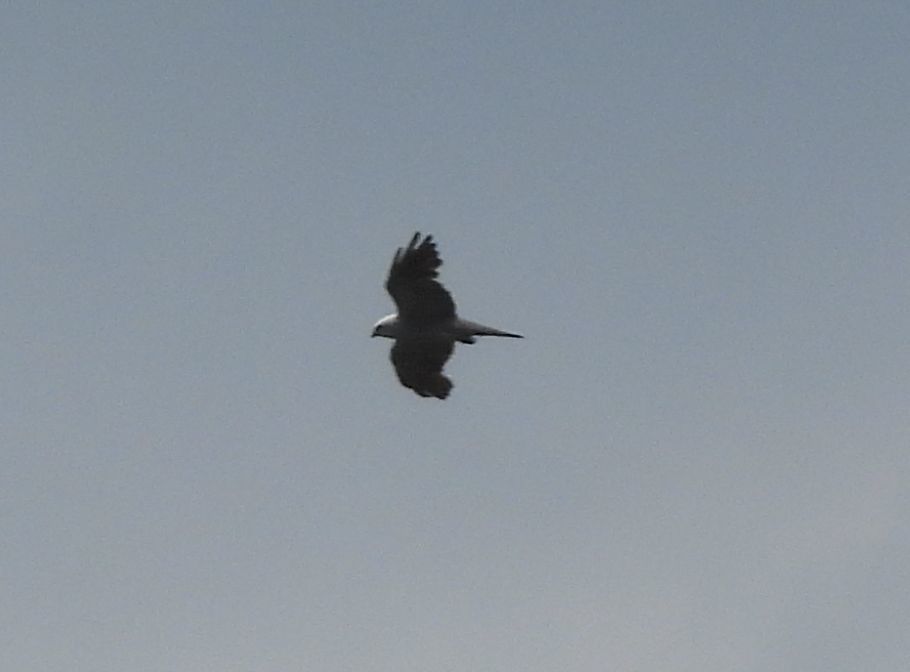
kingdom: Animalia
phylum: Chordata
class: Aves
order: Accipitriformes
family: Accipitridae
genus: Ictinia
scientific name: Ictinia mississippiensis
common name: Mississippi kite
